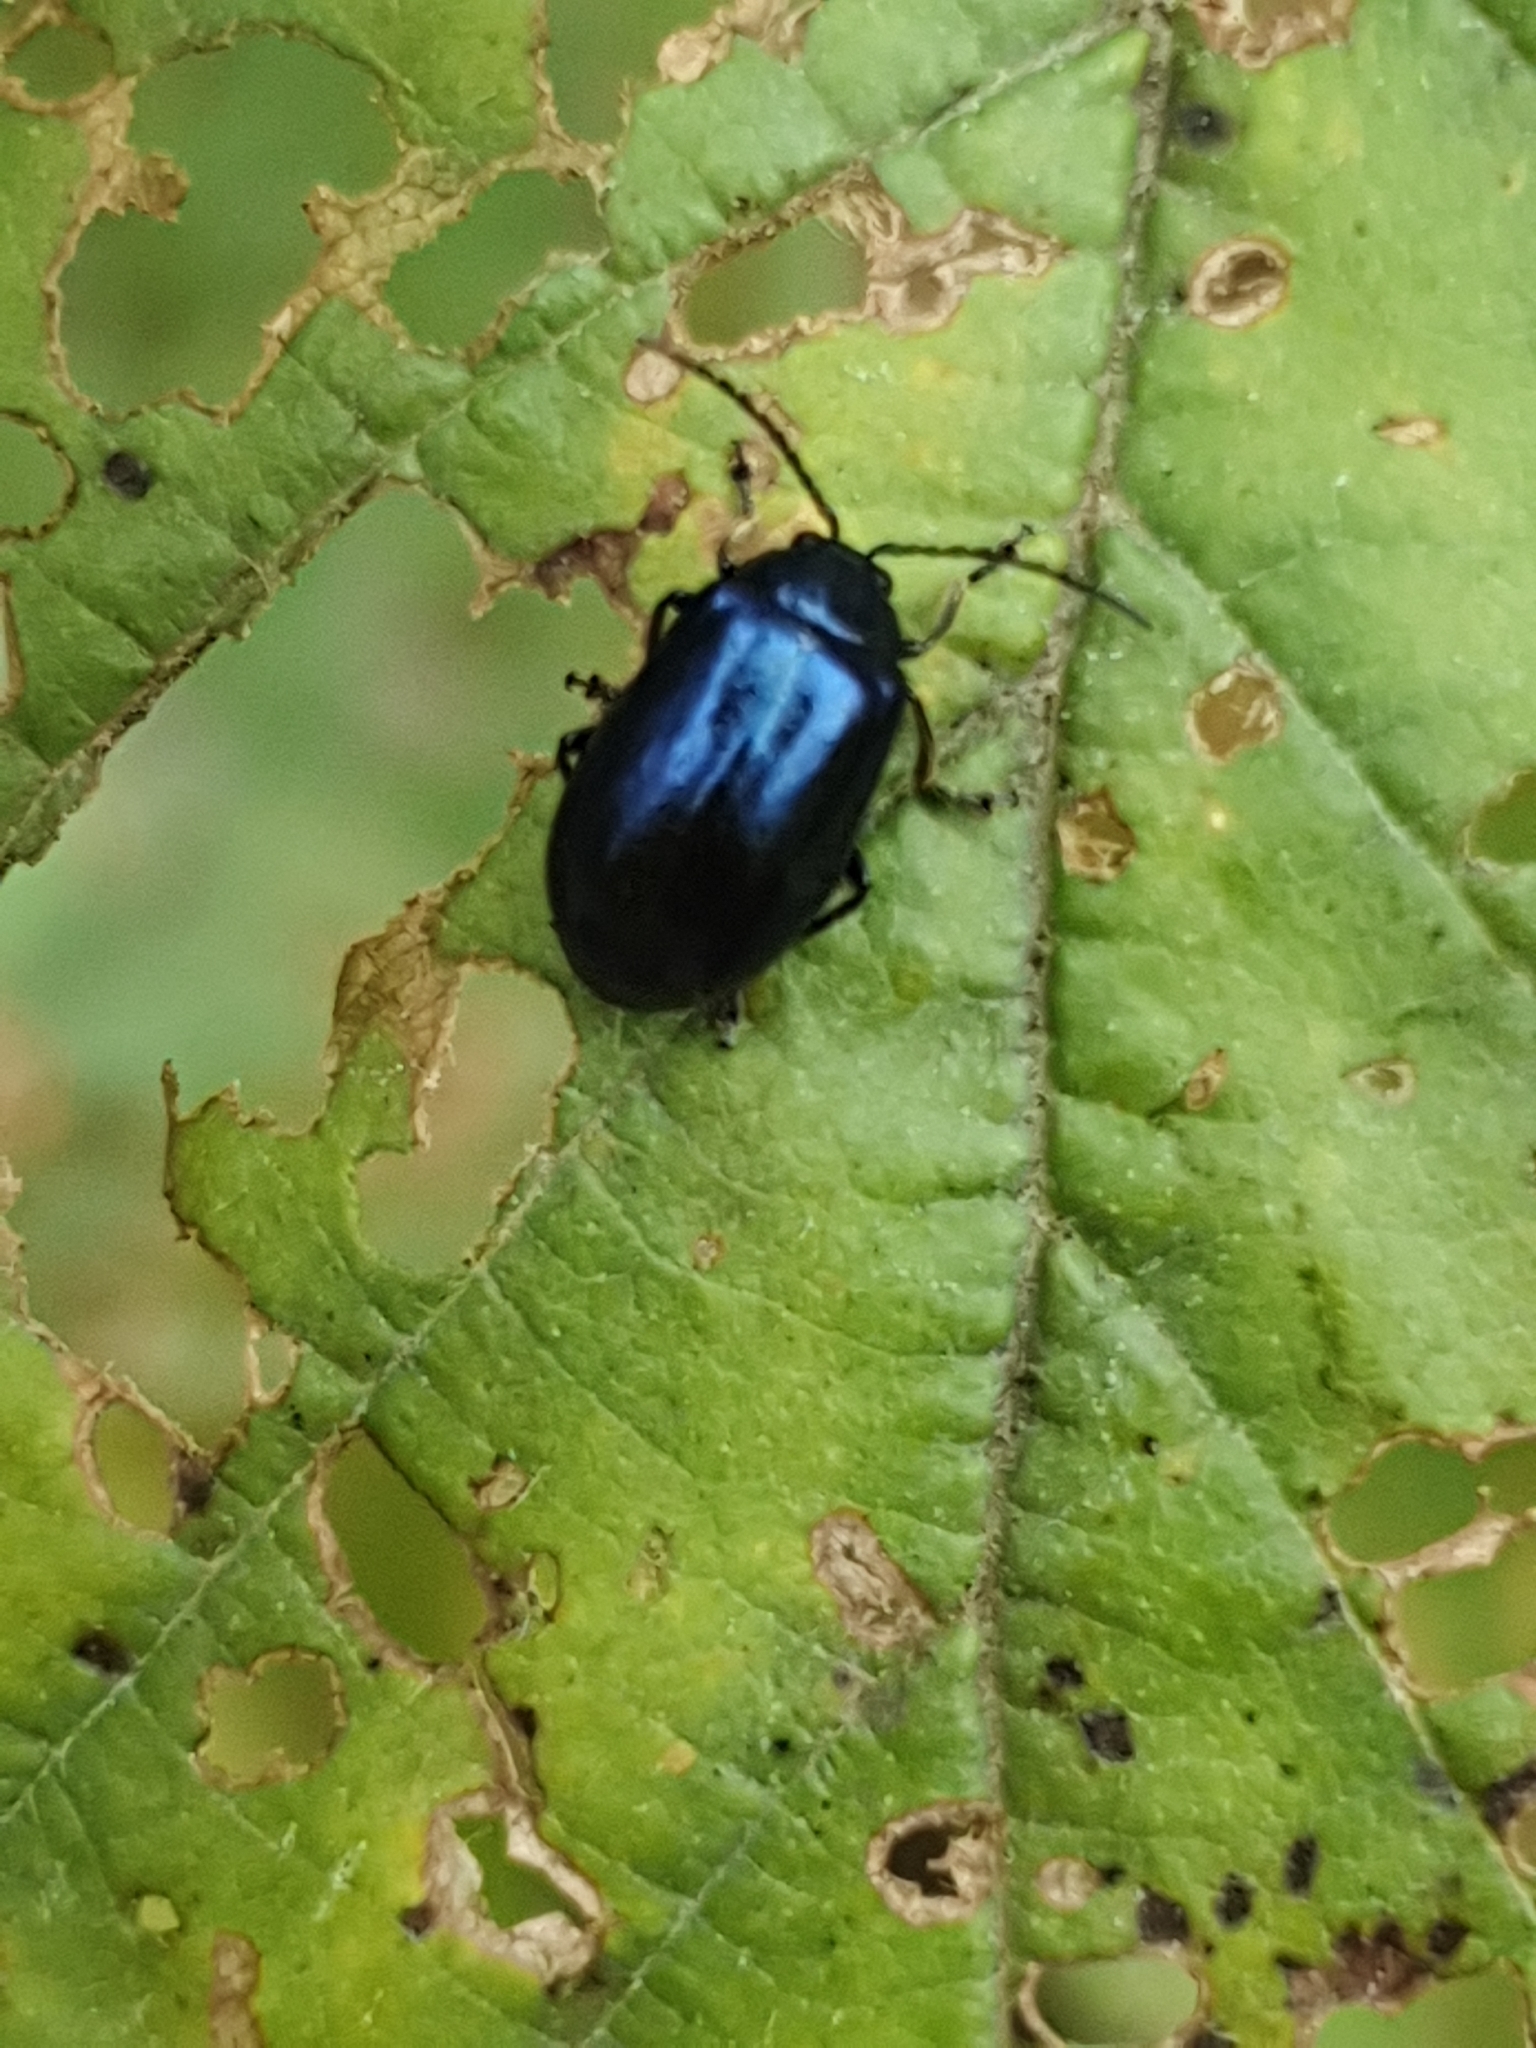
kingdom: Animalia
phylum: Arthropoda
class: Insecta
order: Coleoptera
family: Chrysomelidae
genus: Agelastica
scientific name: Agelastica alni
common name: Alder leaf beetle
